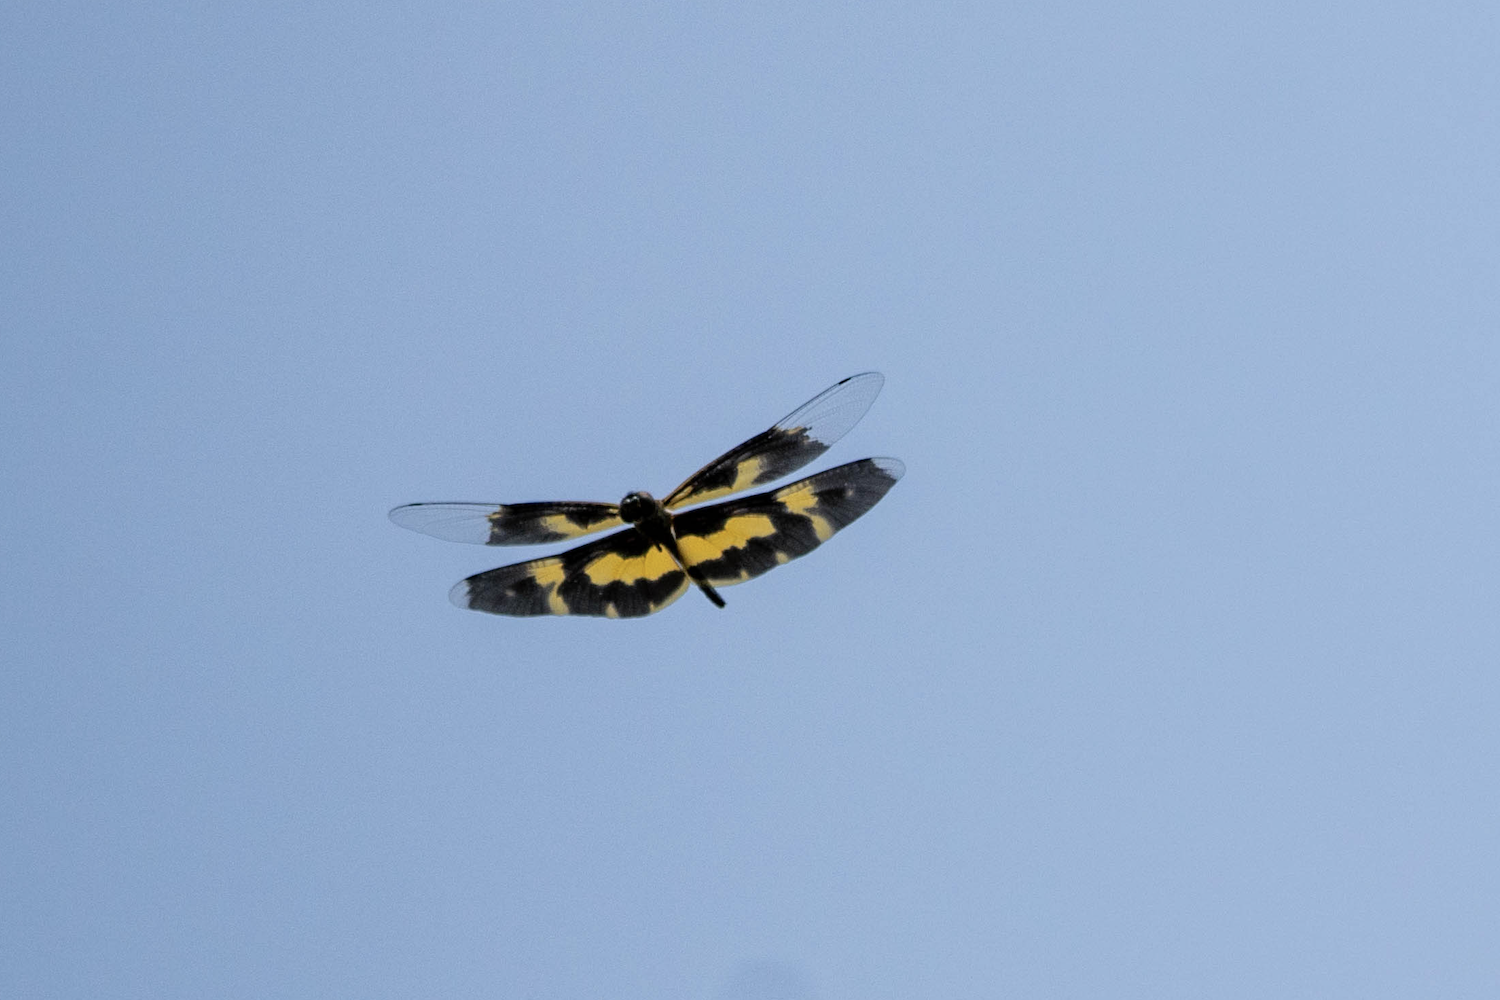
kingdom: Animalia
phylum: Arthropoda
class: Insecta
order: Odonata
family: Libellulidae
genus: Rhyothemis
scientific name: Rhyothemis variegata
